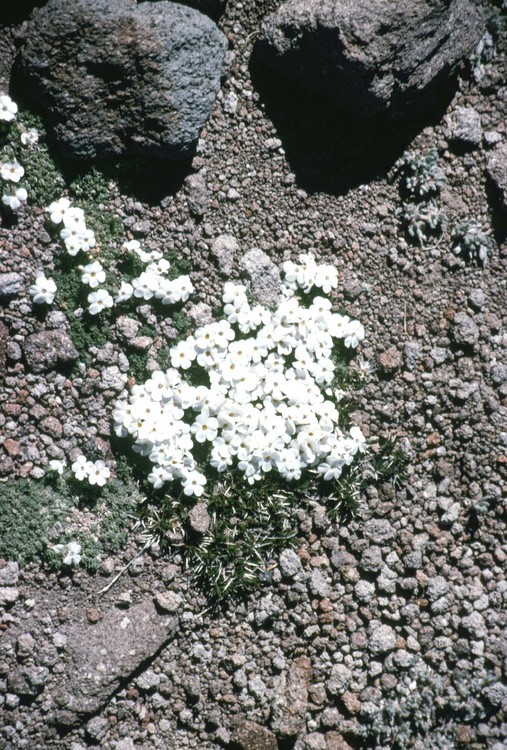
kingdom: Plantae
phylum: Tracheophyta
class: Magnoliopsida
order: Ericales
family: Polemoniaceae
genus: Phlox
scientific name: Phlox condensata
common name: Compact phlox
